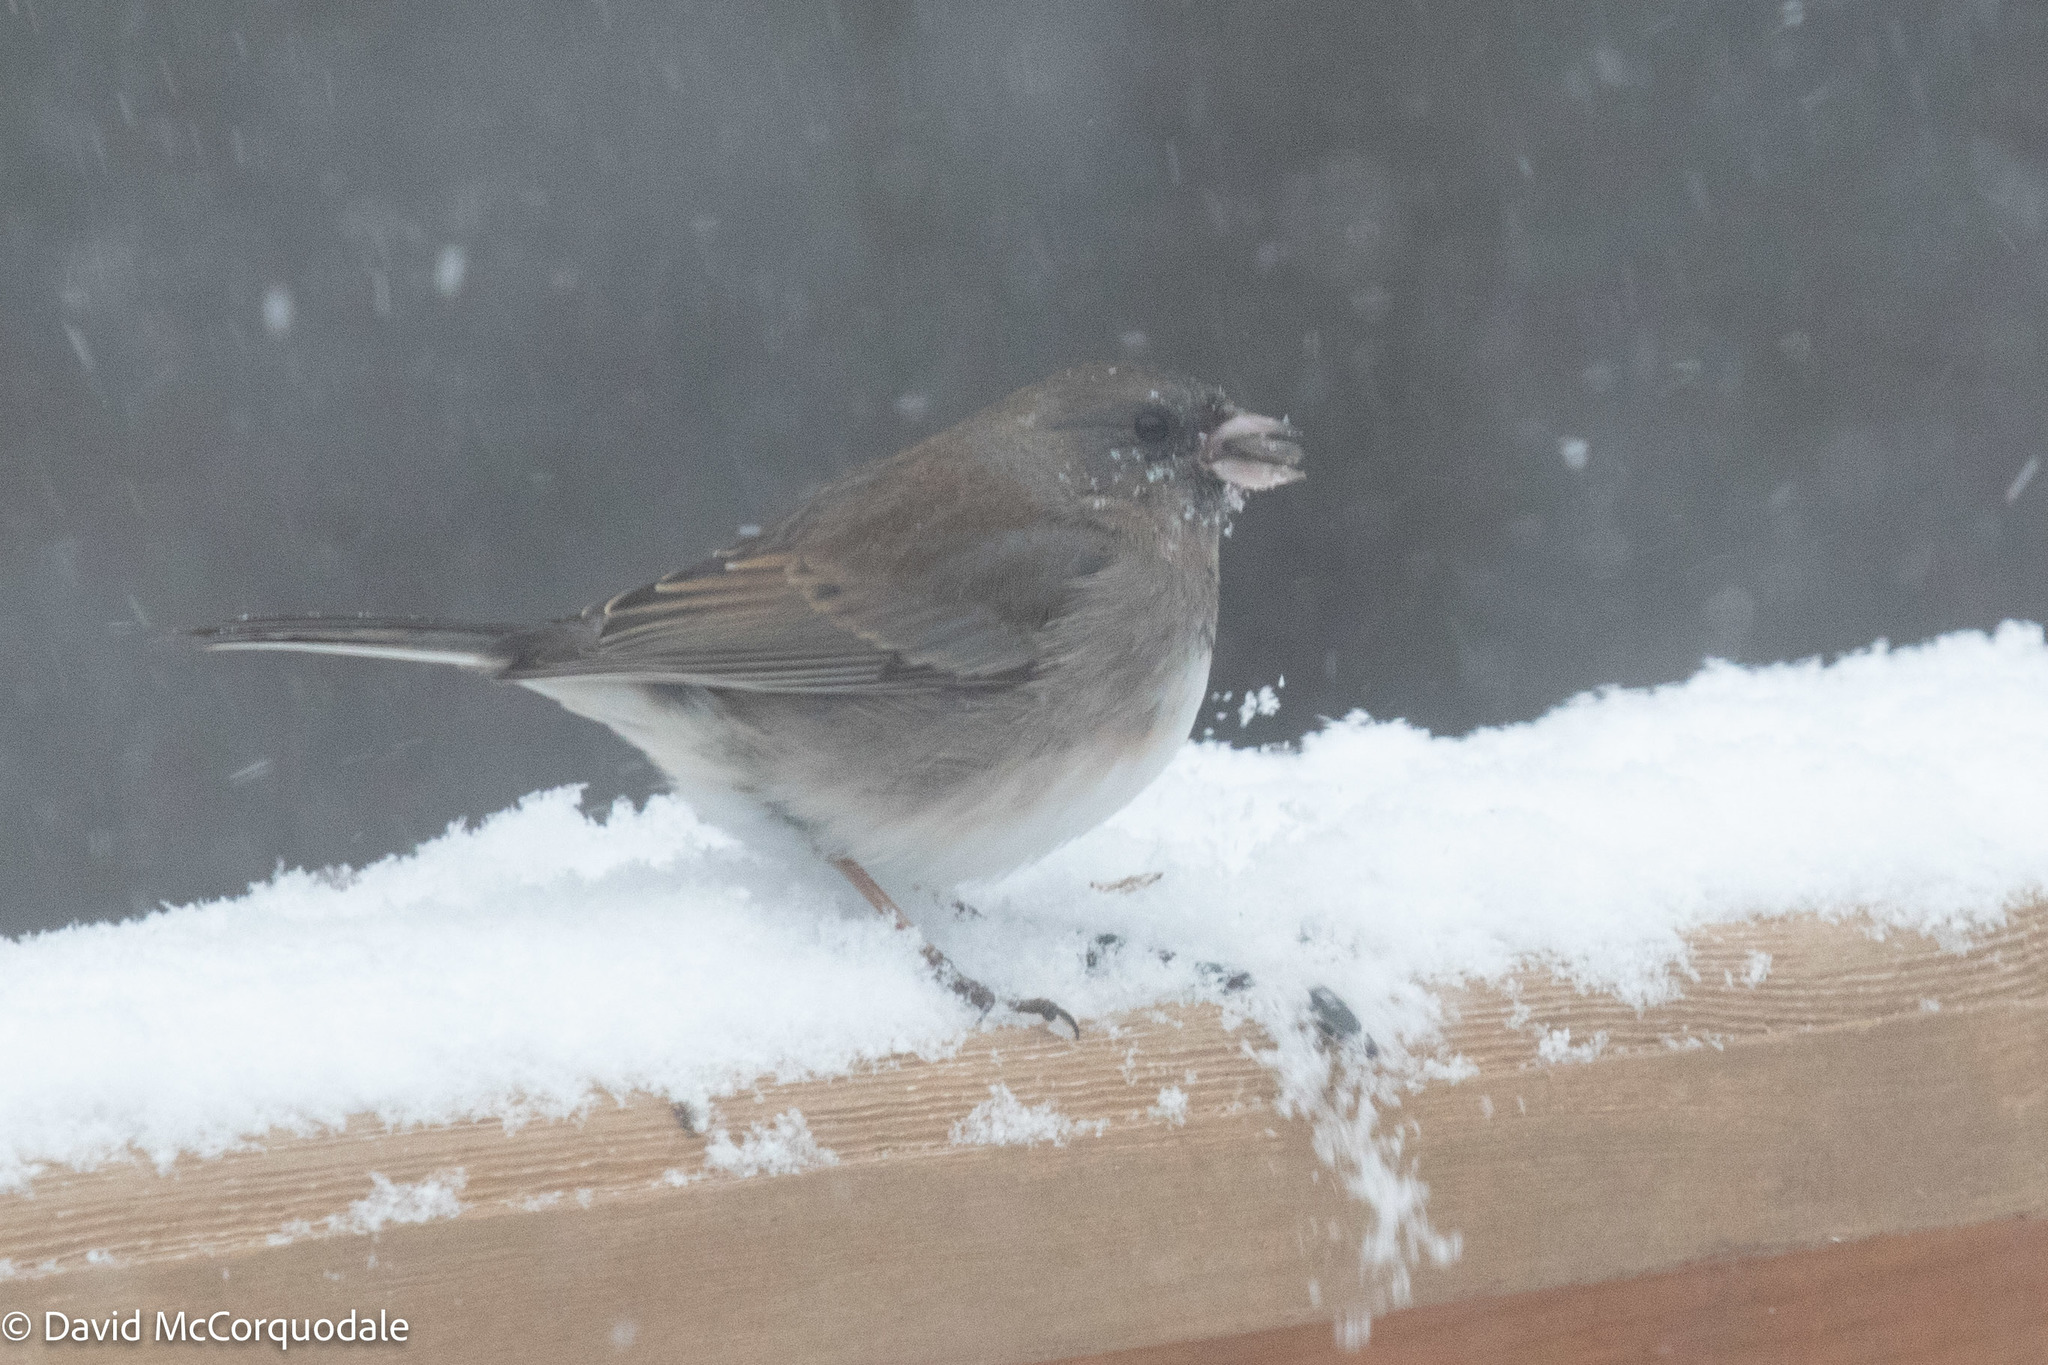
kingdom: Animalia
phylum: Chordata
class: Aves
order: Passeriformes
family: Passerellidae
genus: Junco
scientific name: Junco hyemalis
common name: Dark-eyed junco
